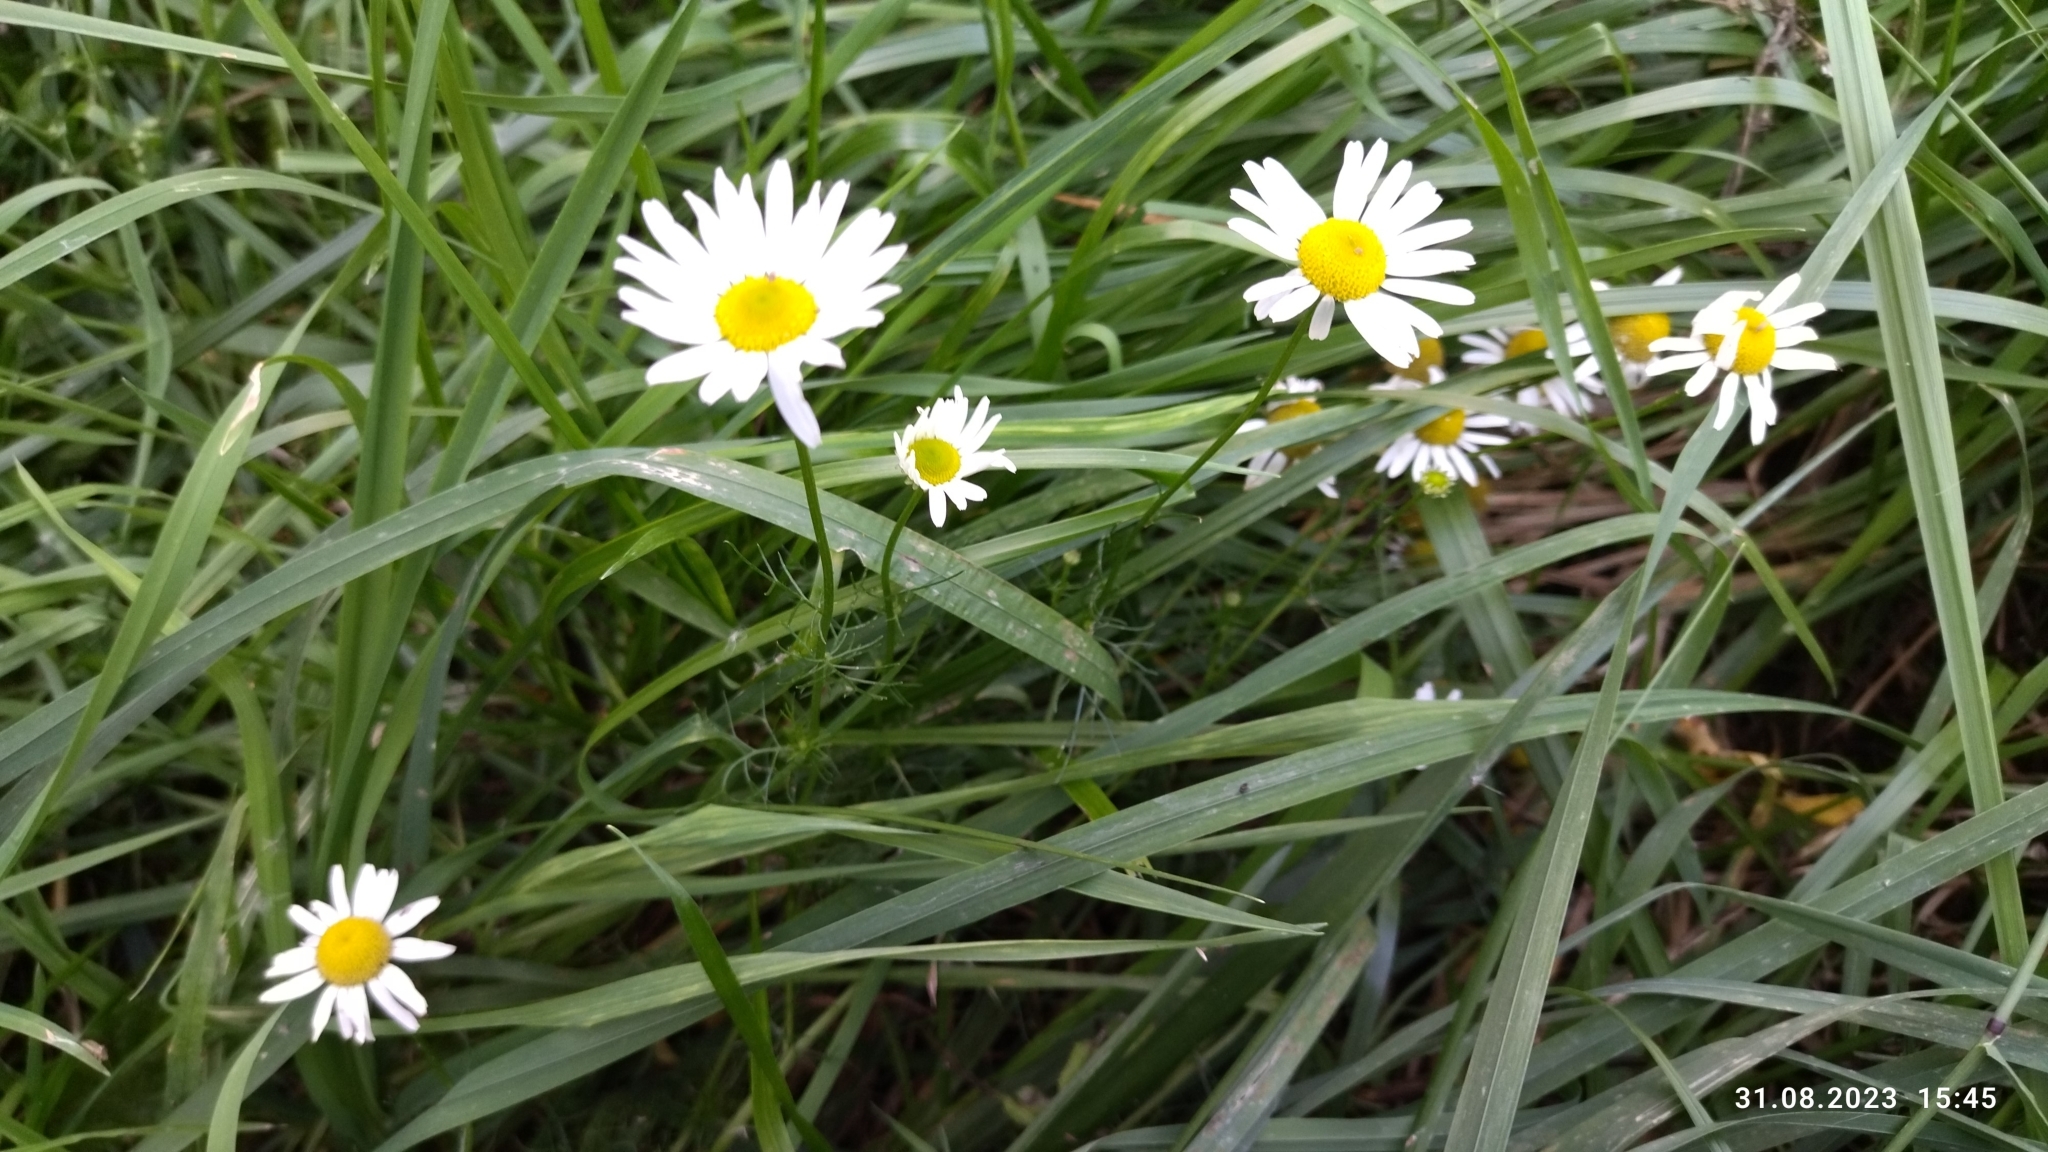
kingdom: Plantae
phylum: Tracheophyta
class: Magnoliopsida
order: Asterales
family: Asteraceae
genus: Tripleurospermum
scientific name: Tripleurospermum inodorum
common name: Scentless mayweed
